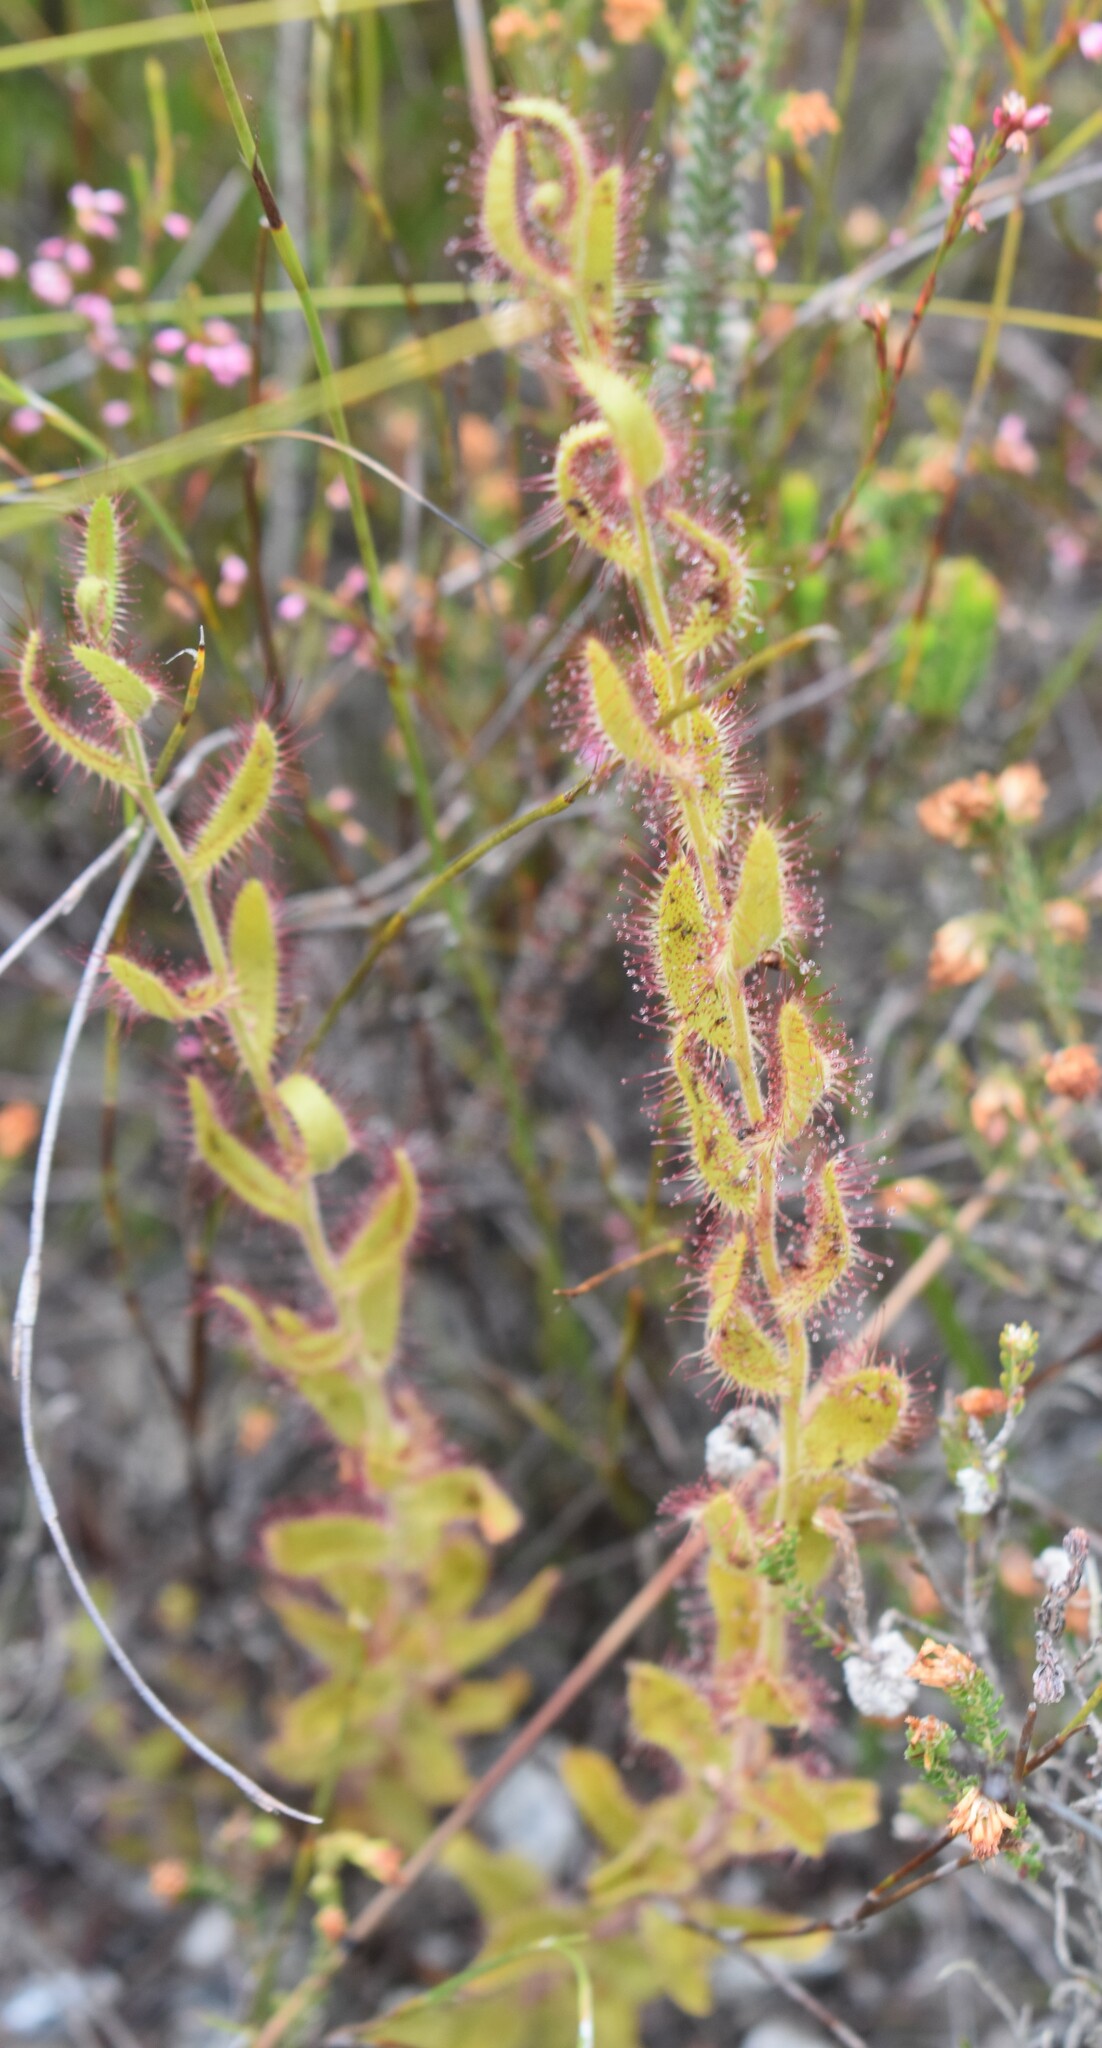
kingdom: Plantae
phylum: Tracheophyta
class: Magnoliopsida
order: Caryophyllales
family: Droseraceae
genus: Drosera
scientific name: Drosera cistiflora
